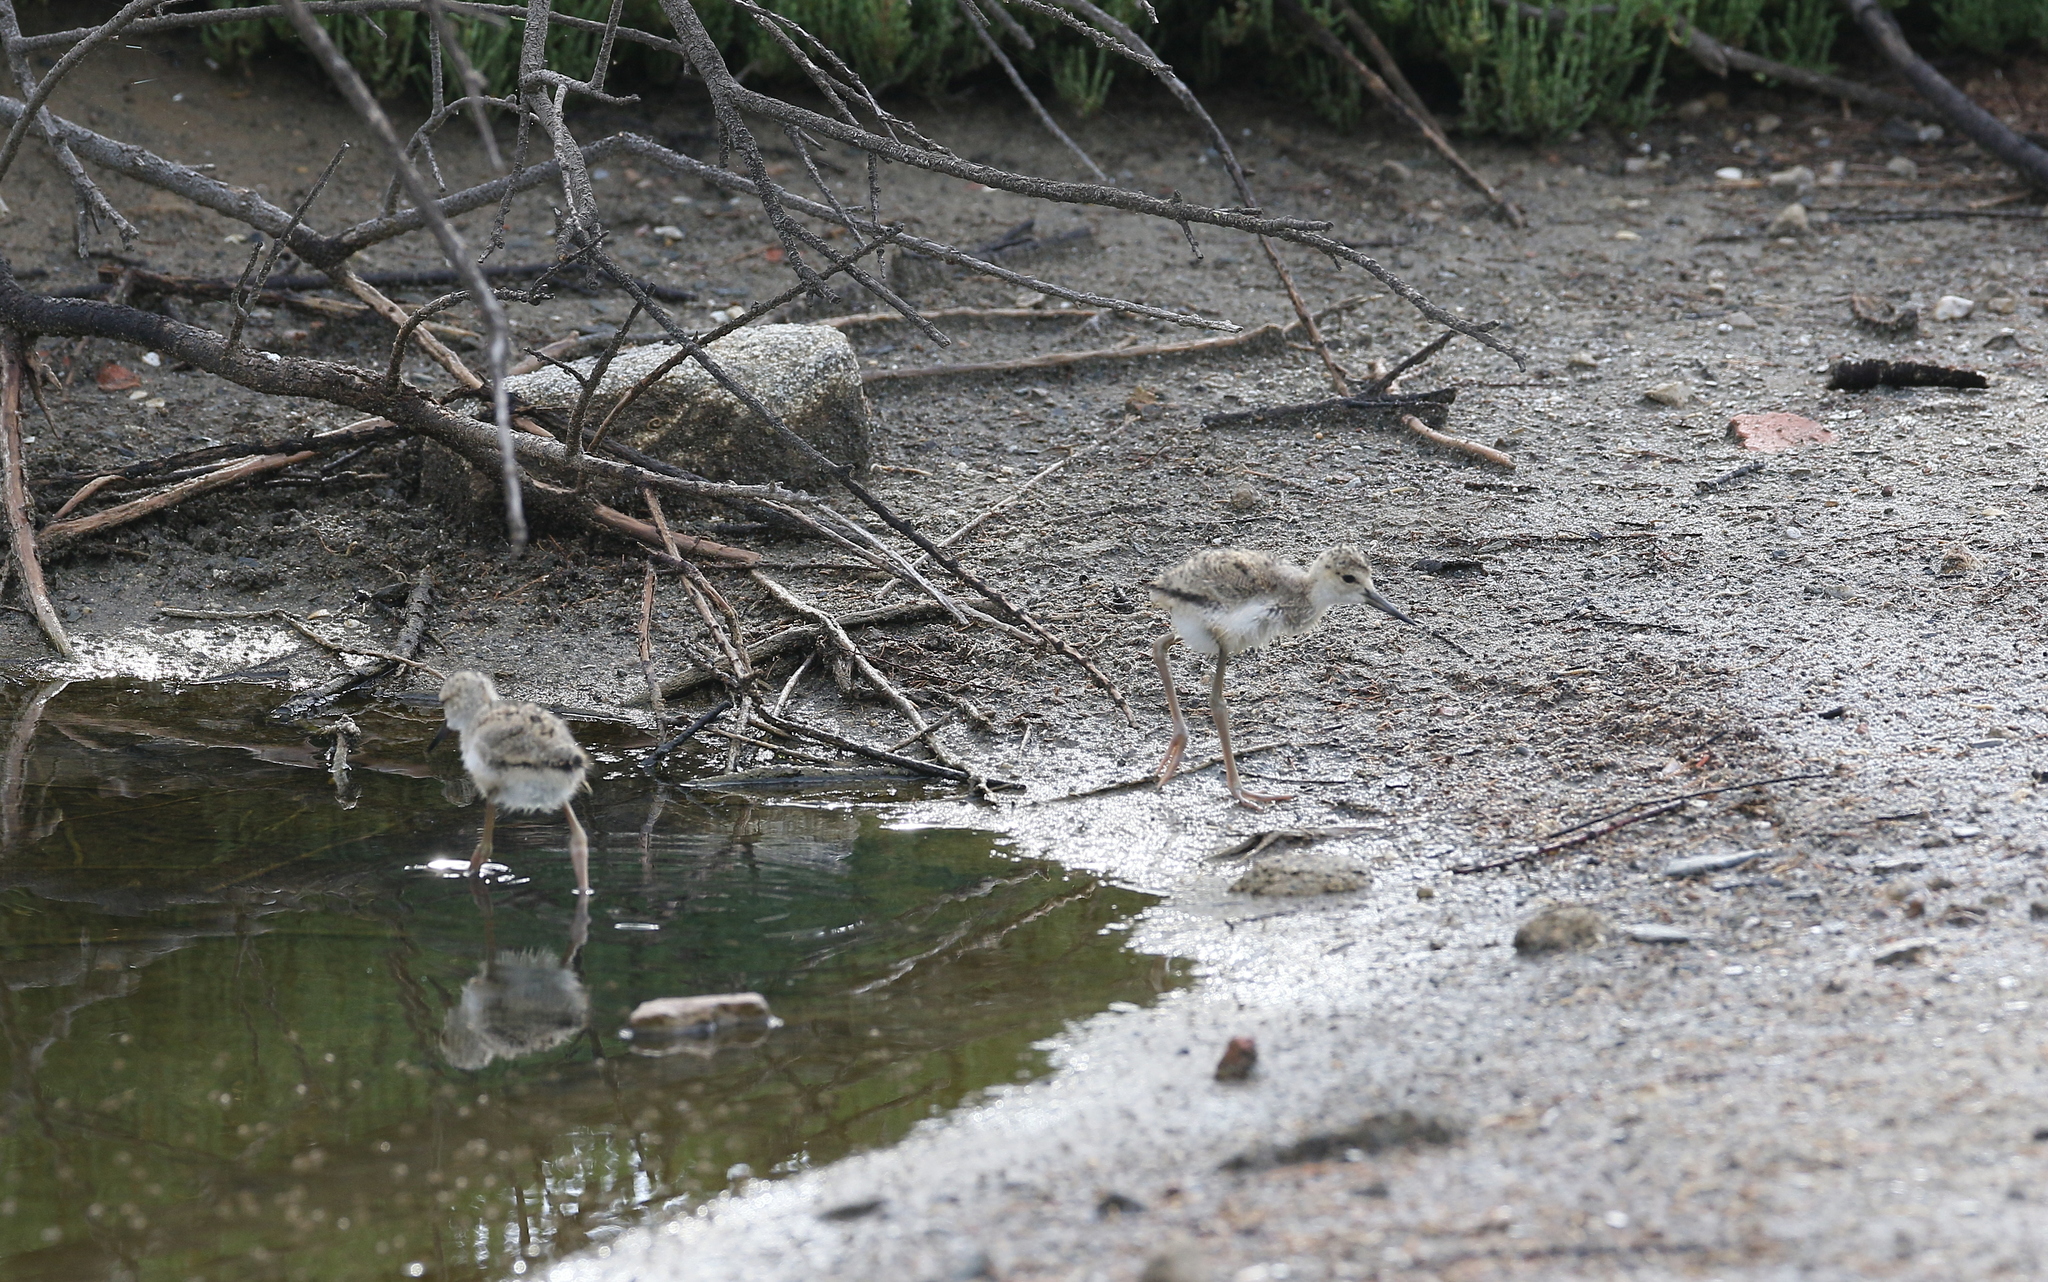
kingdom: Animalia
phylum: Chordata
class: Aves
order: Charadriiformes
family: Recurvirostridae
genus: Himantopus
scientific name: Himantopus himantopus
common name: Black-winged stilt
